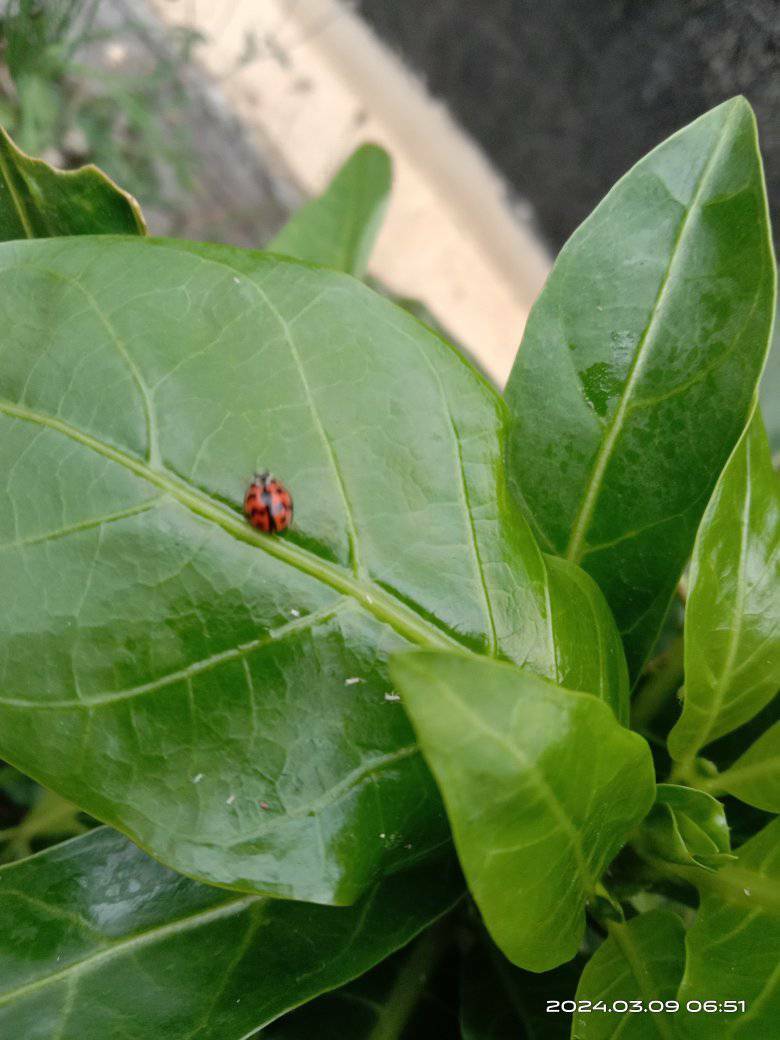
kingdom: Animalia
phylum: Arthropoda
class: Insecta
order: Coleoptera
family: Coccinellidae
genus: Cheilomenes
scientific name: Cheilomenes sexmaculata
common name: Ladybird beetle
